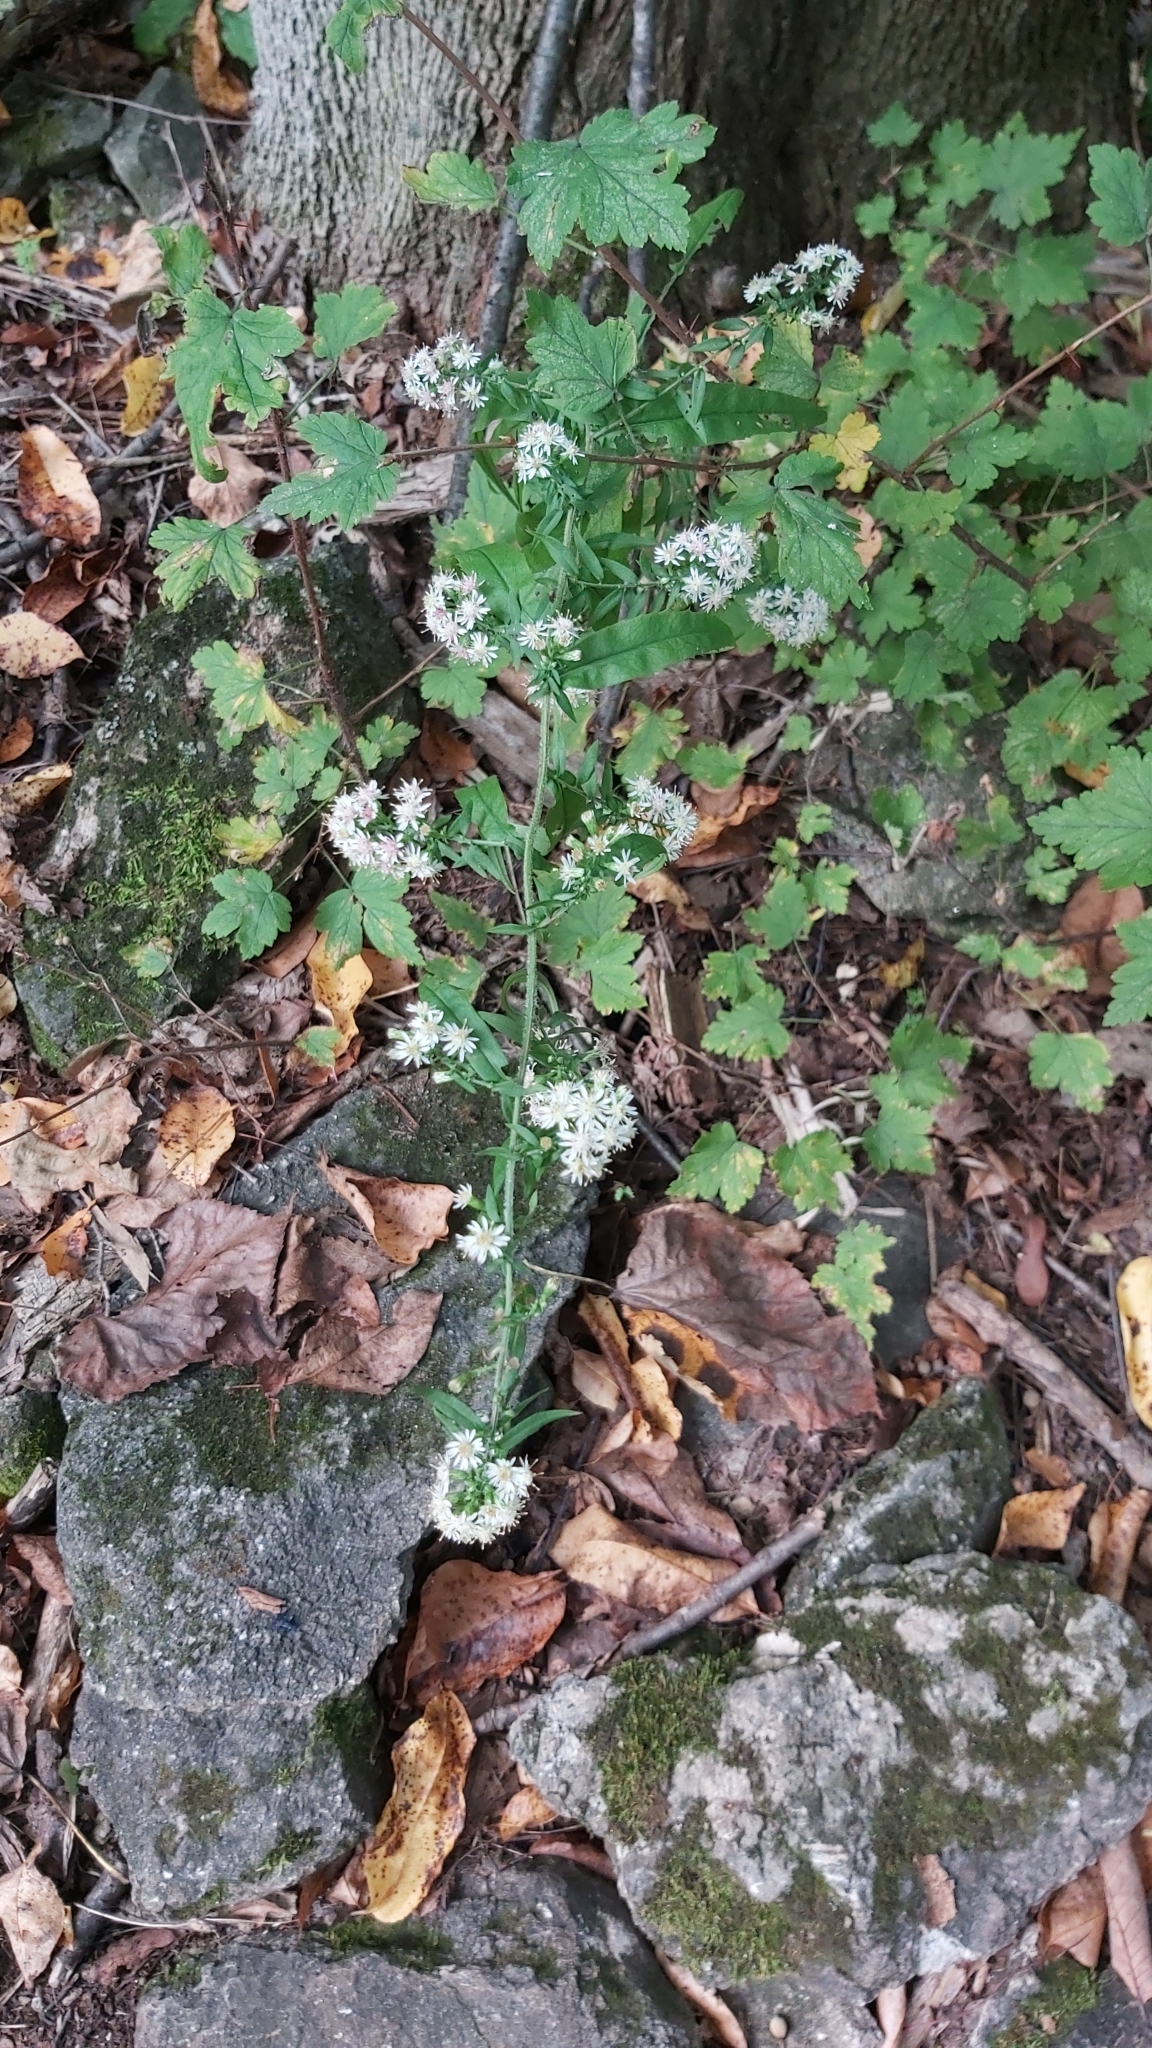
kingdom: Plantae
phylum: Tracheophyta
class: Magnoliopsida
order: Asterales
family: Asteraceae
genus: Symphyotrichum
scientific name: Symphyotrichum lateriflorum
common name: Calico aster
